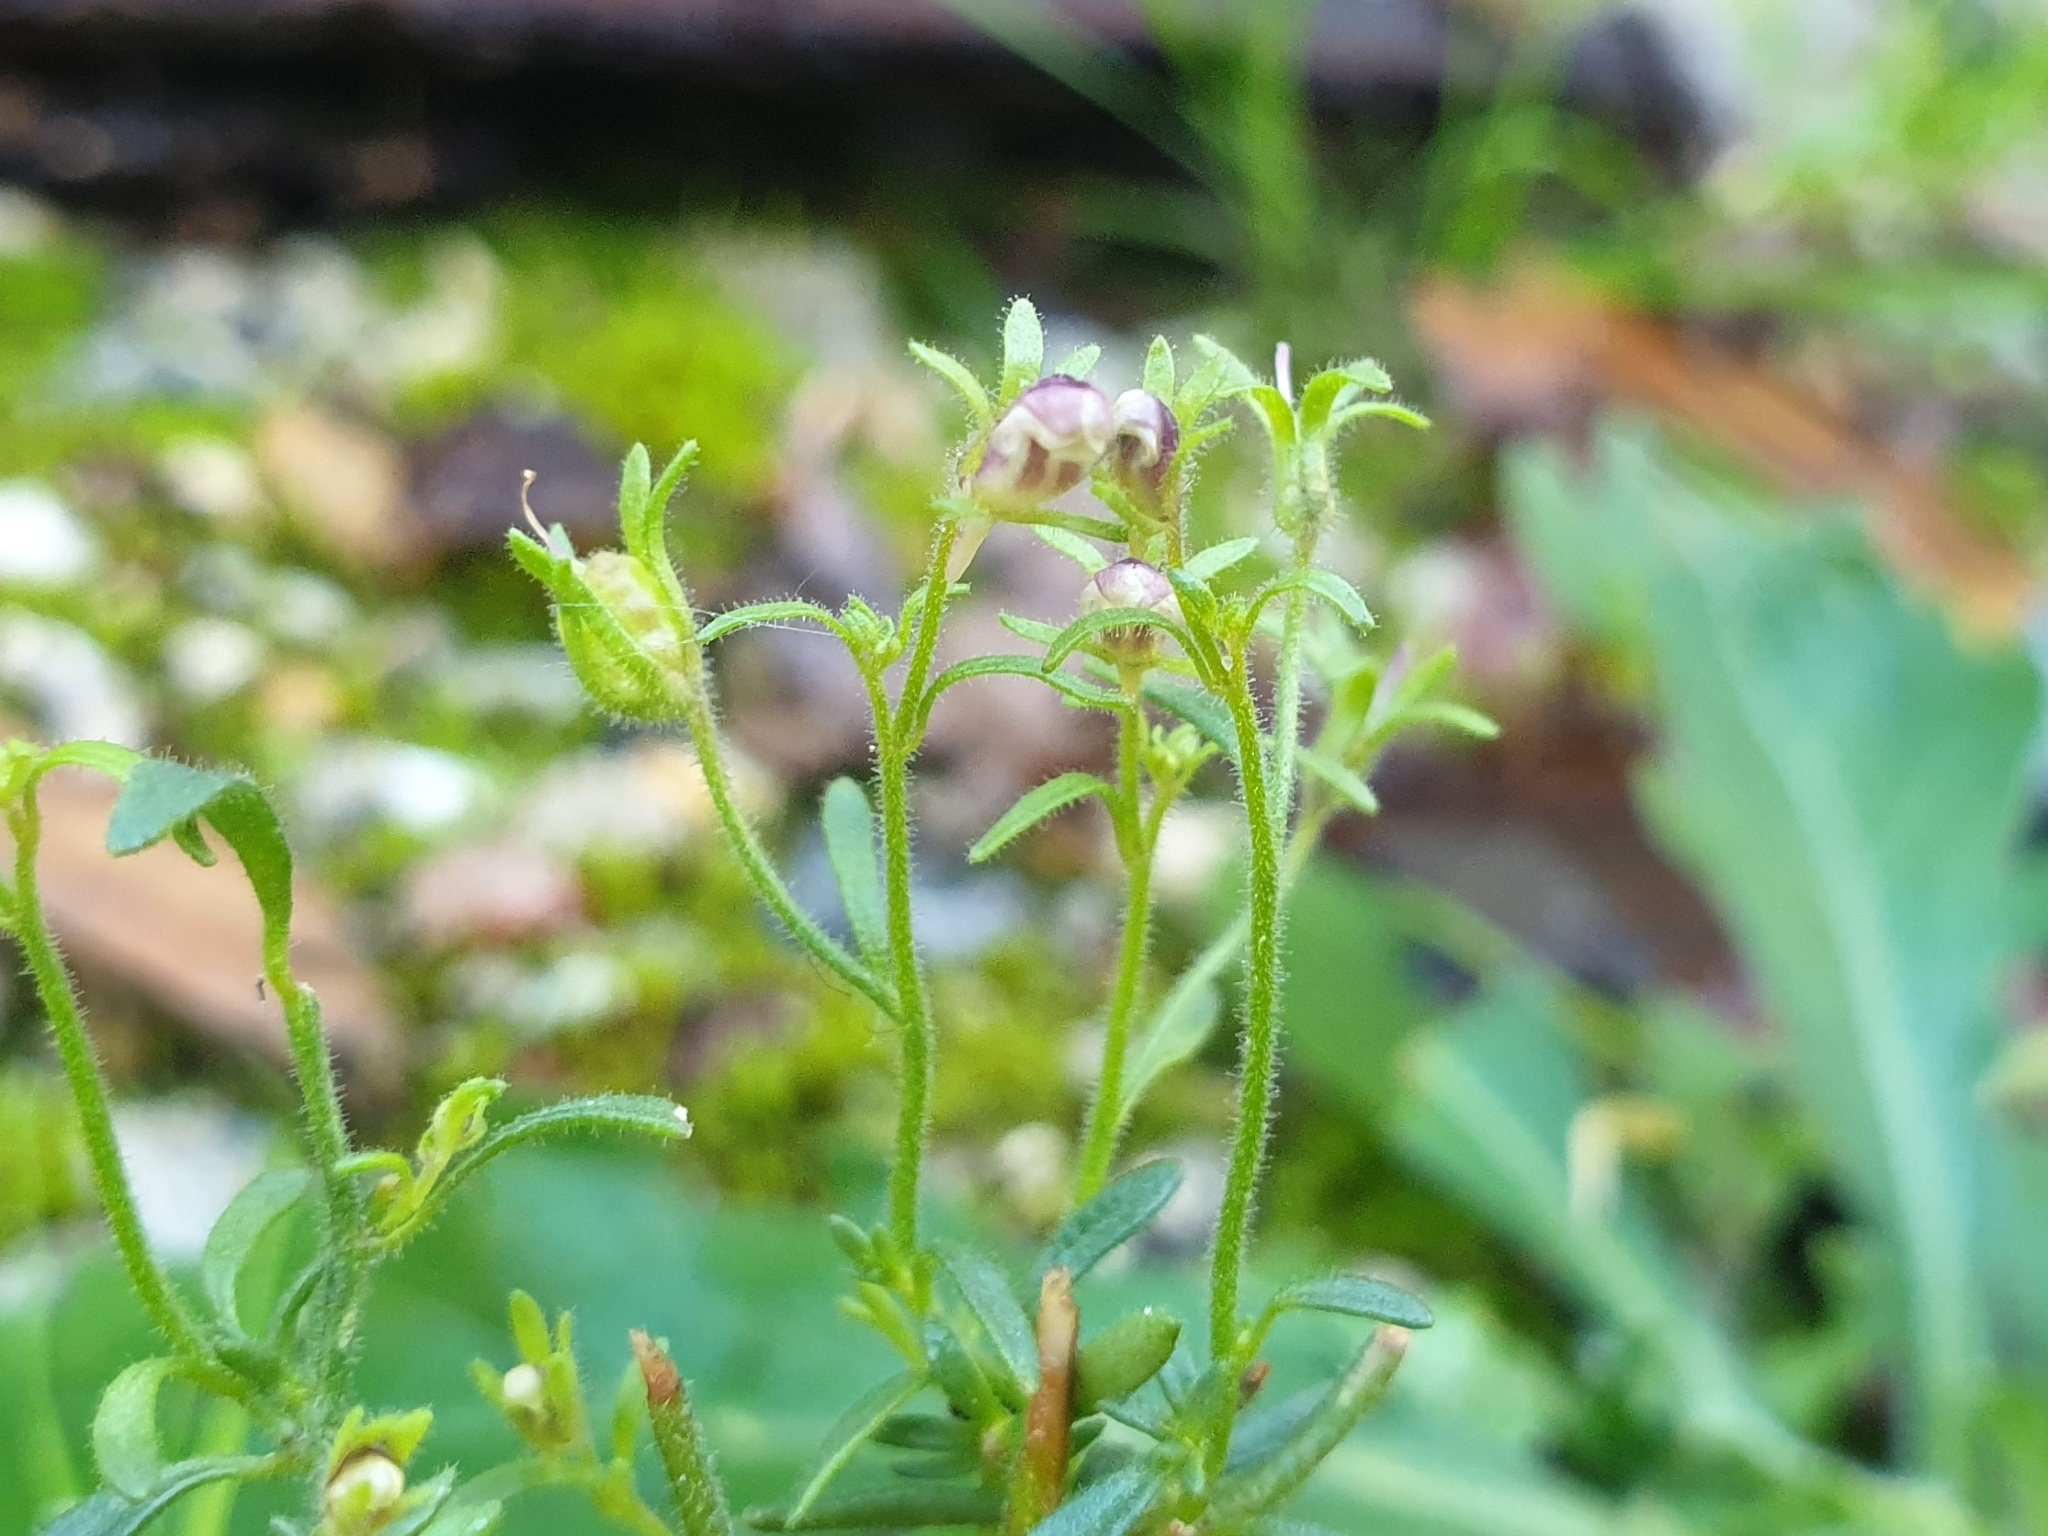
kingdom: Plantae
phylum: Tracheophyta
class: Magnoliopsida
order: Lamiales
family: Plantaginaceae
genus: Chaenorhinum
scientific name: Chaenorhinum minus
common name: Dwarf snapdragon
